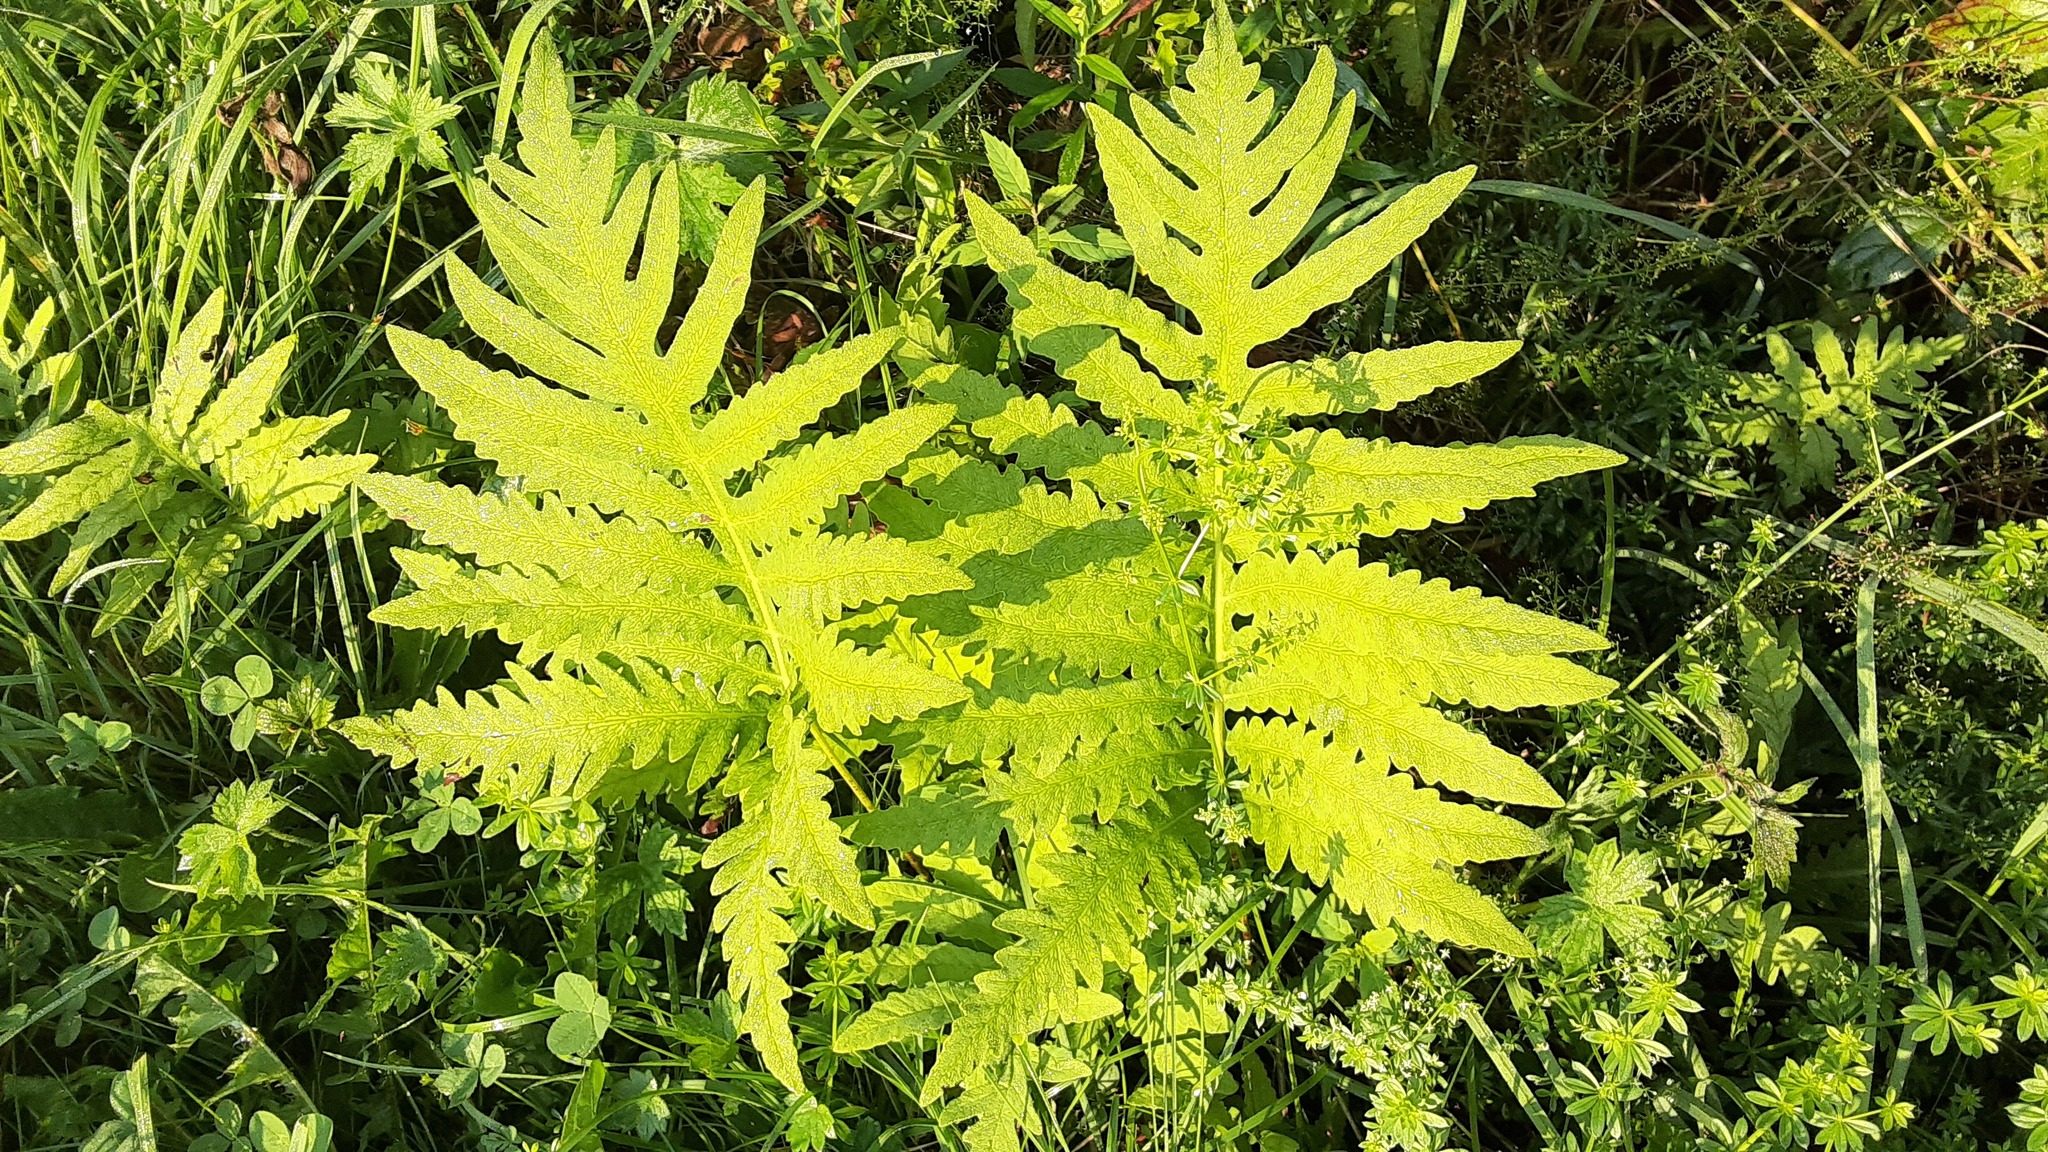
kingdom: Plantae
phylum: Tracheophyta
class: Polypodiopsida
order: Polypodiales
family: Onocleaceae
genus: Onoclea
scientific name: Onoclea sensibilis
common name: Sensitive fern
